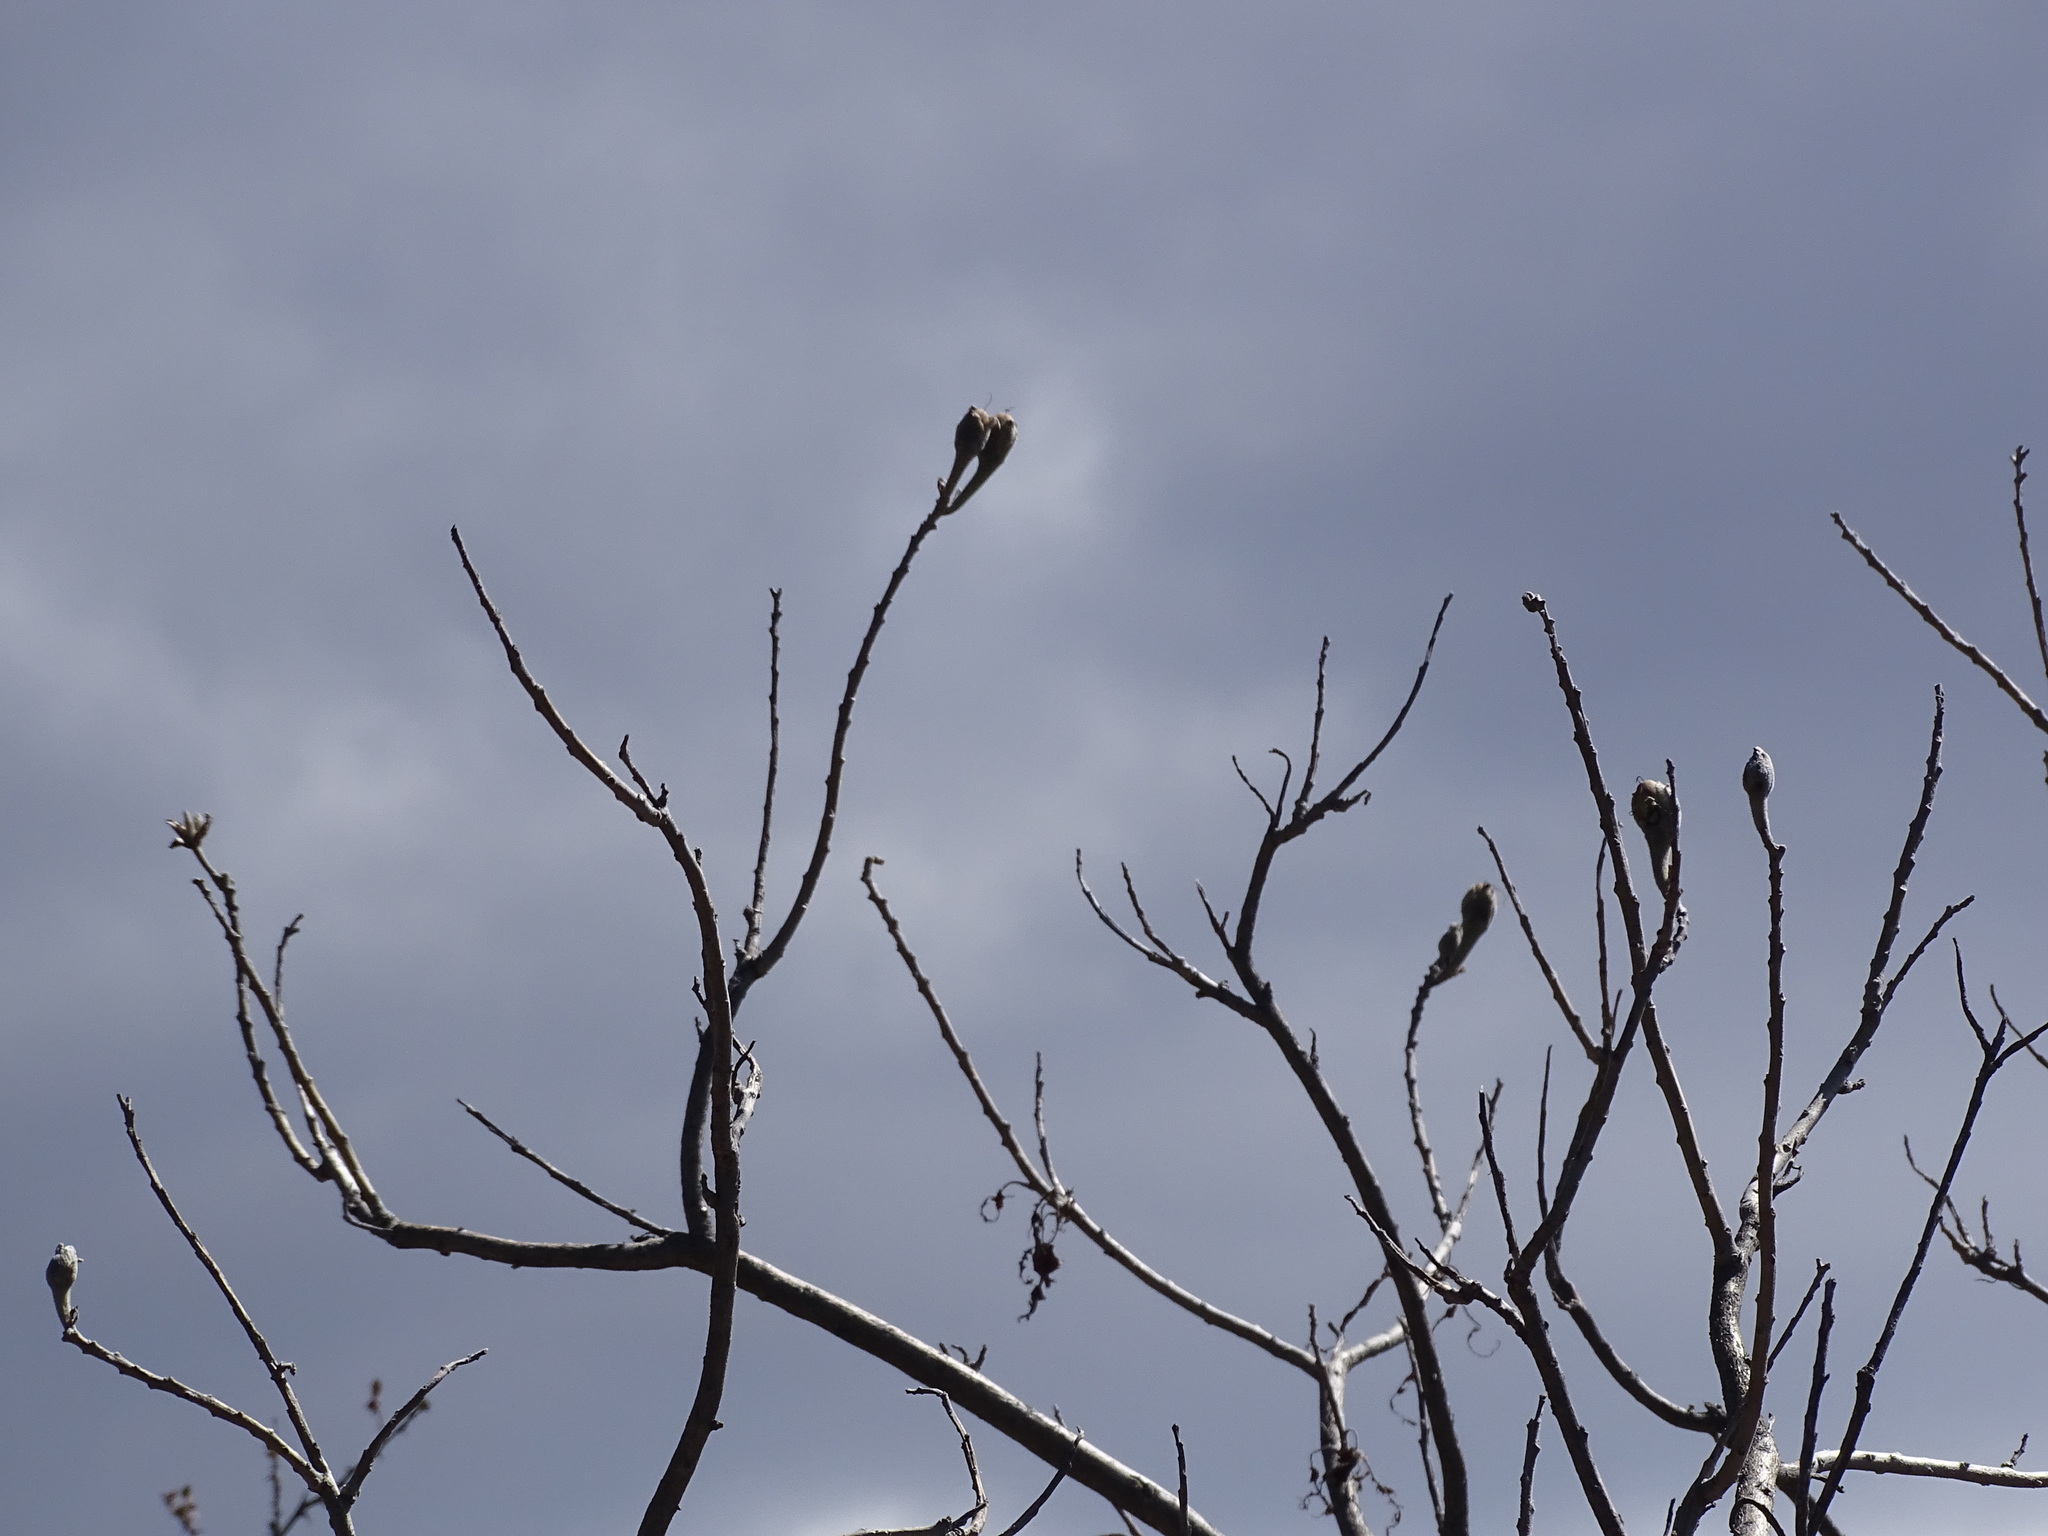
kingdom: Plantae
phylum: Tracheophyta
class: Magnoliopsida
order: Solanales
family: Convolvulaceae
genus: Ipomoea
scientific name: Ipomoea murucoides
